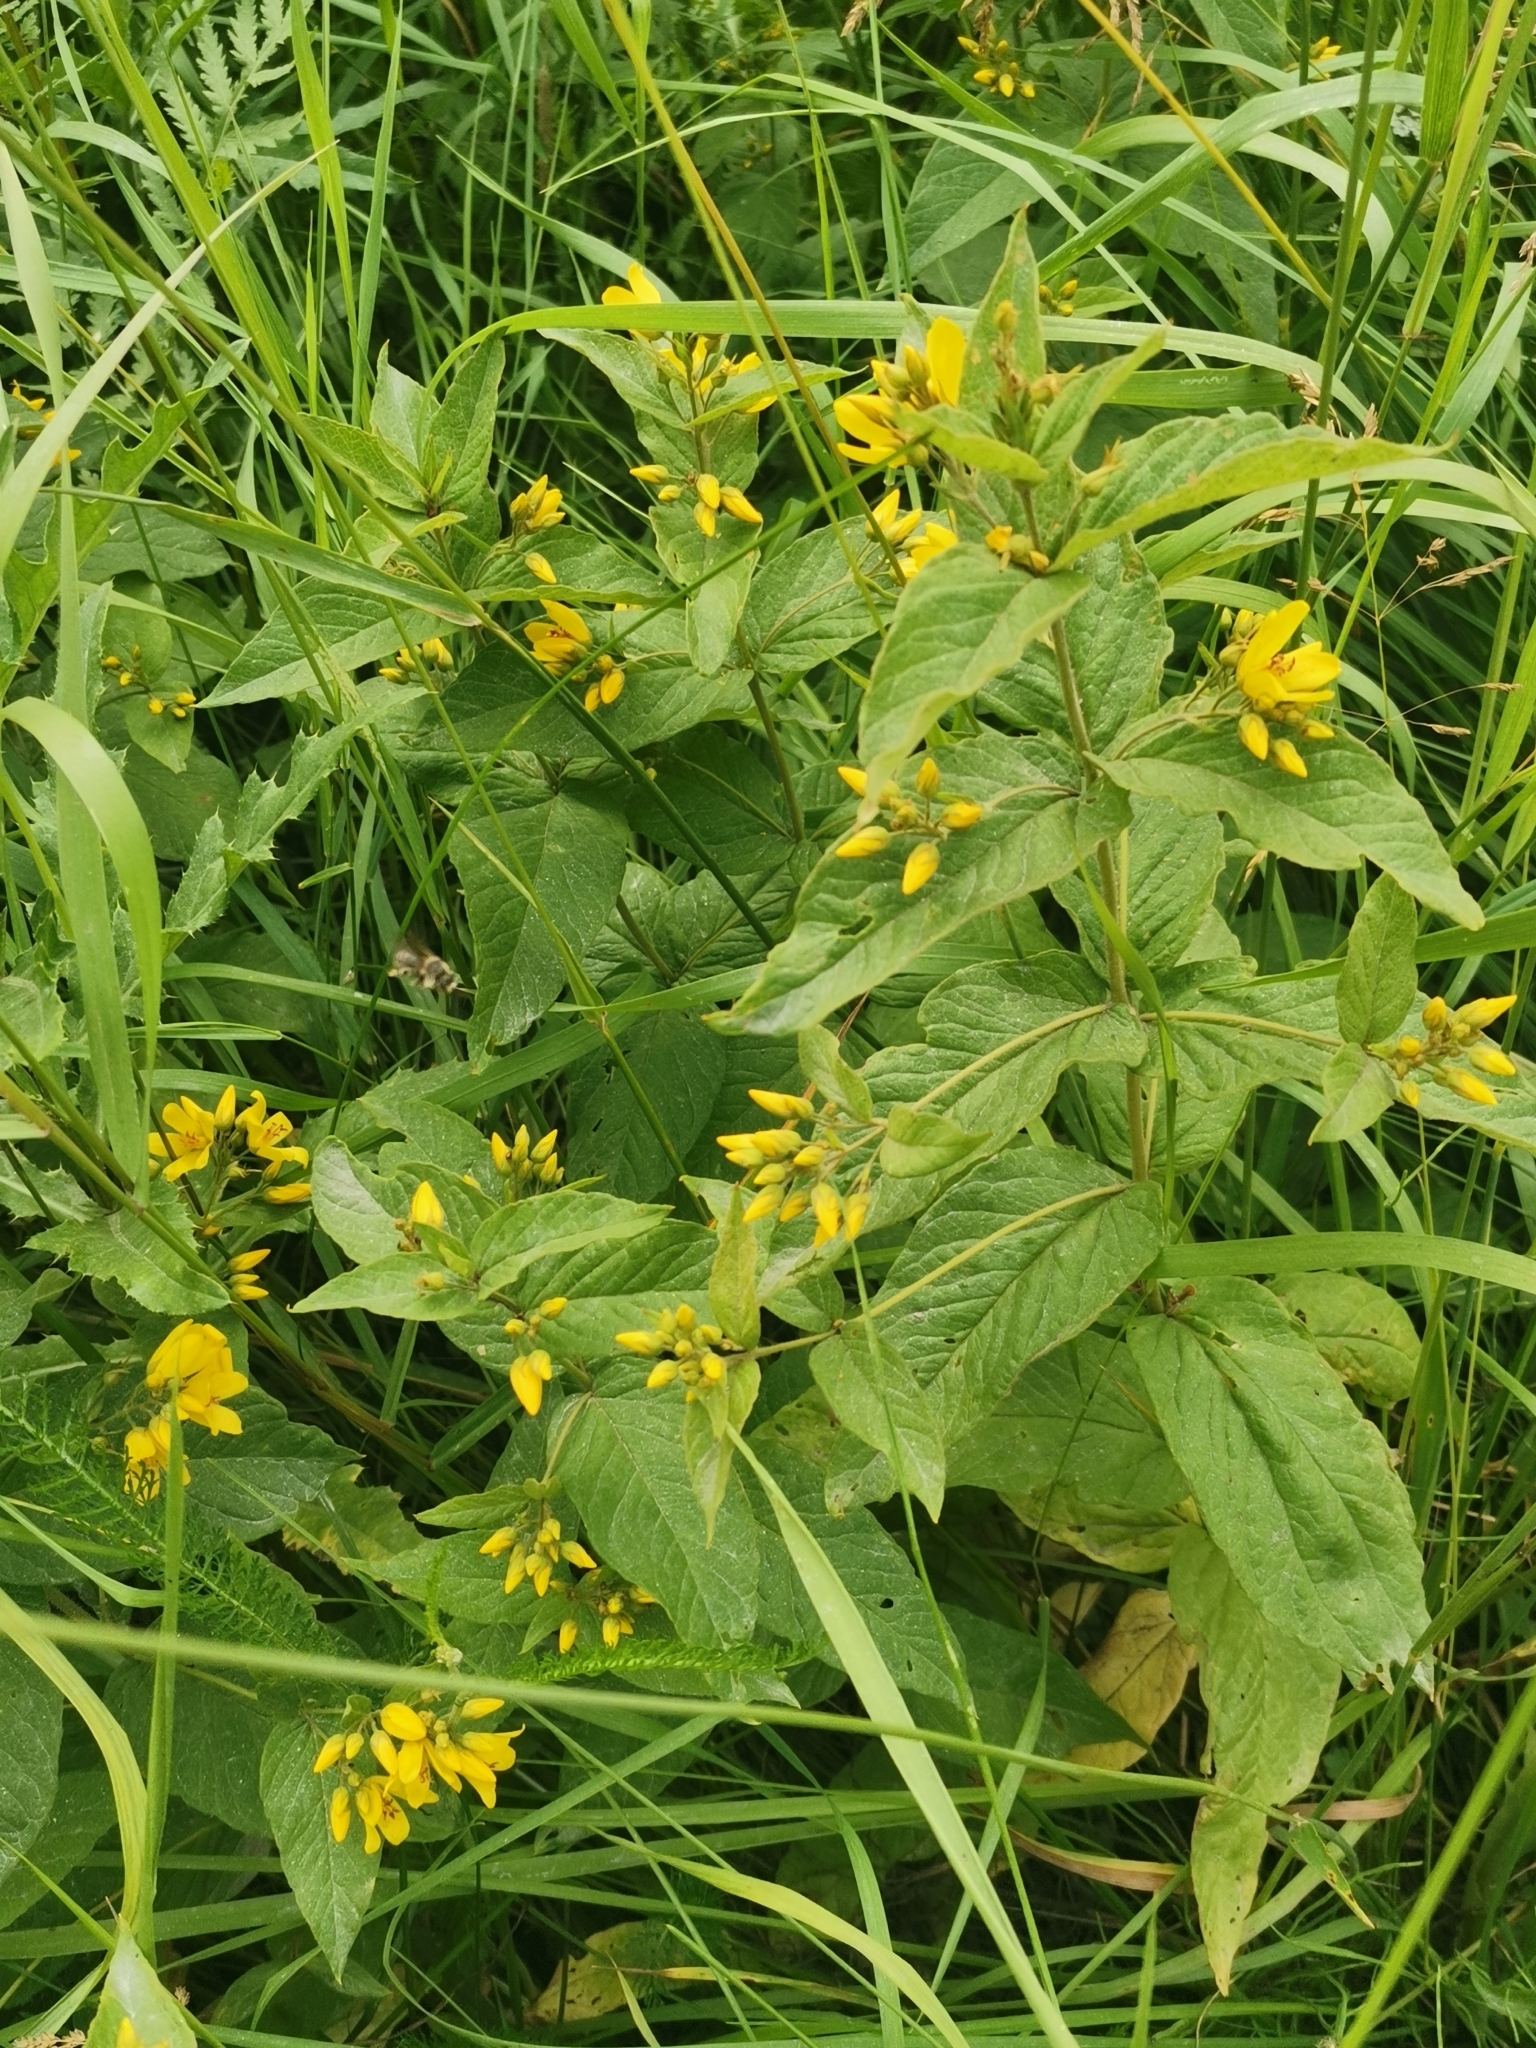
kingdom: Plantae
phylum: Tracheophyta
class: Magnoliopsida
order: Ericales
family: Primulaceae
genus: Lysimachia
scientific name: Lysimachia vulgaris
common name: Yellow loosestrife
